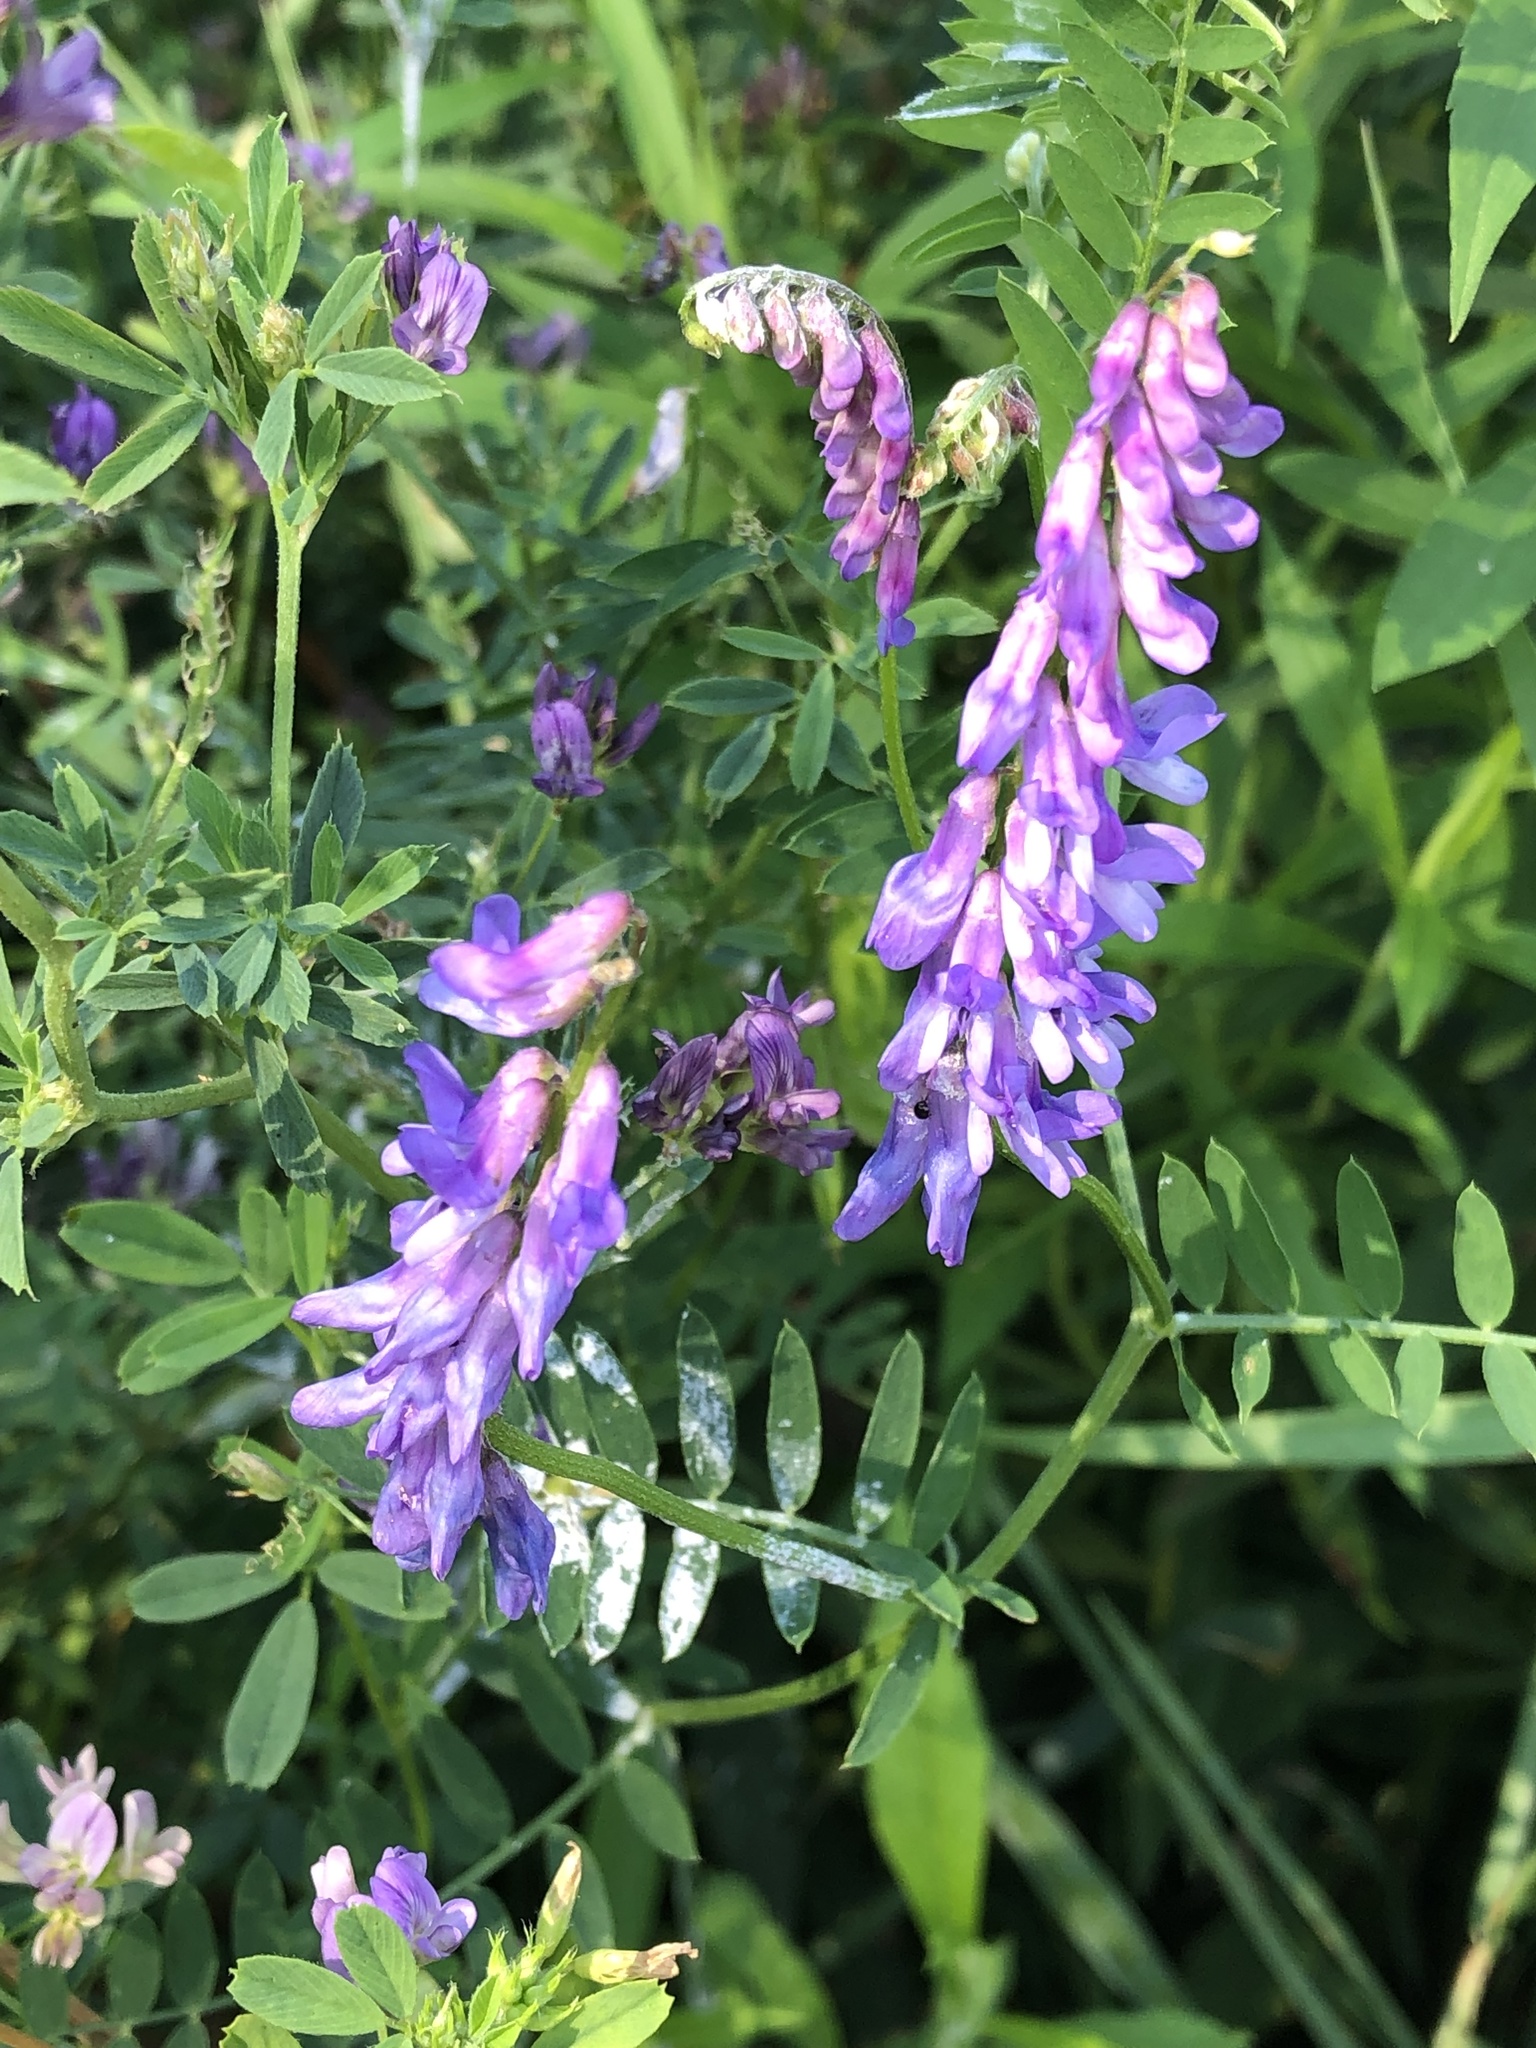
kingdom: Plantae
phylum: Tracheophyta
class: Magnoliopsida
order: Fabales
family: Fabaceae
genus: Vicia
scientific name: Vicia cracca
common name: Bird vetch
